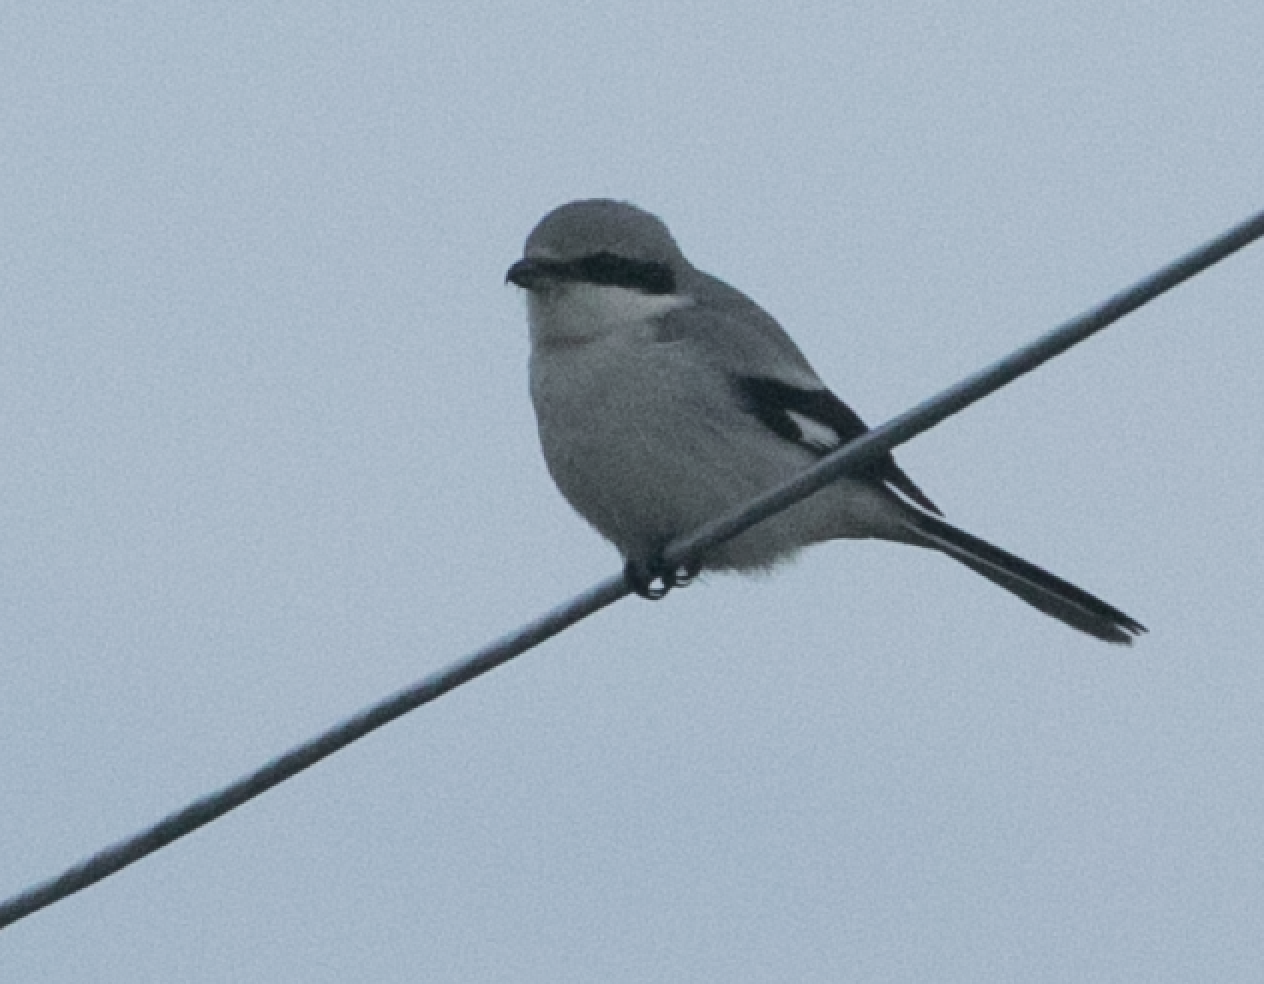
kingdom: Animalia
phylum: Chordata
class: Aves
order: Passeriformes
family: Laniidae
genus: Lanius
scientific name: Lanius excubitor
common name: Great grey shrike
